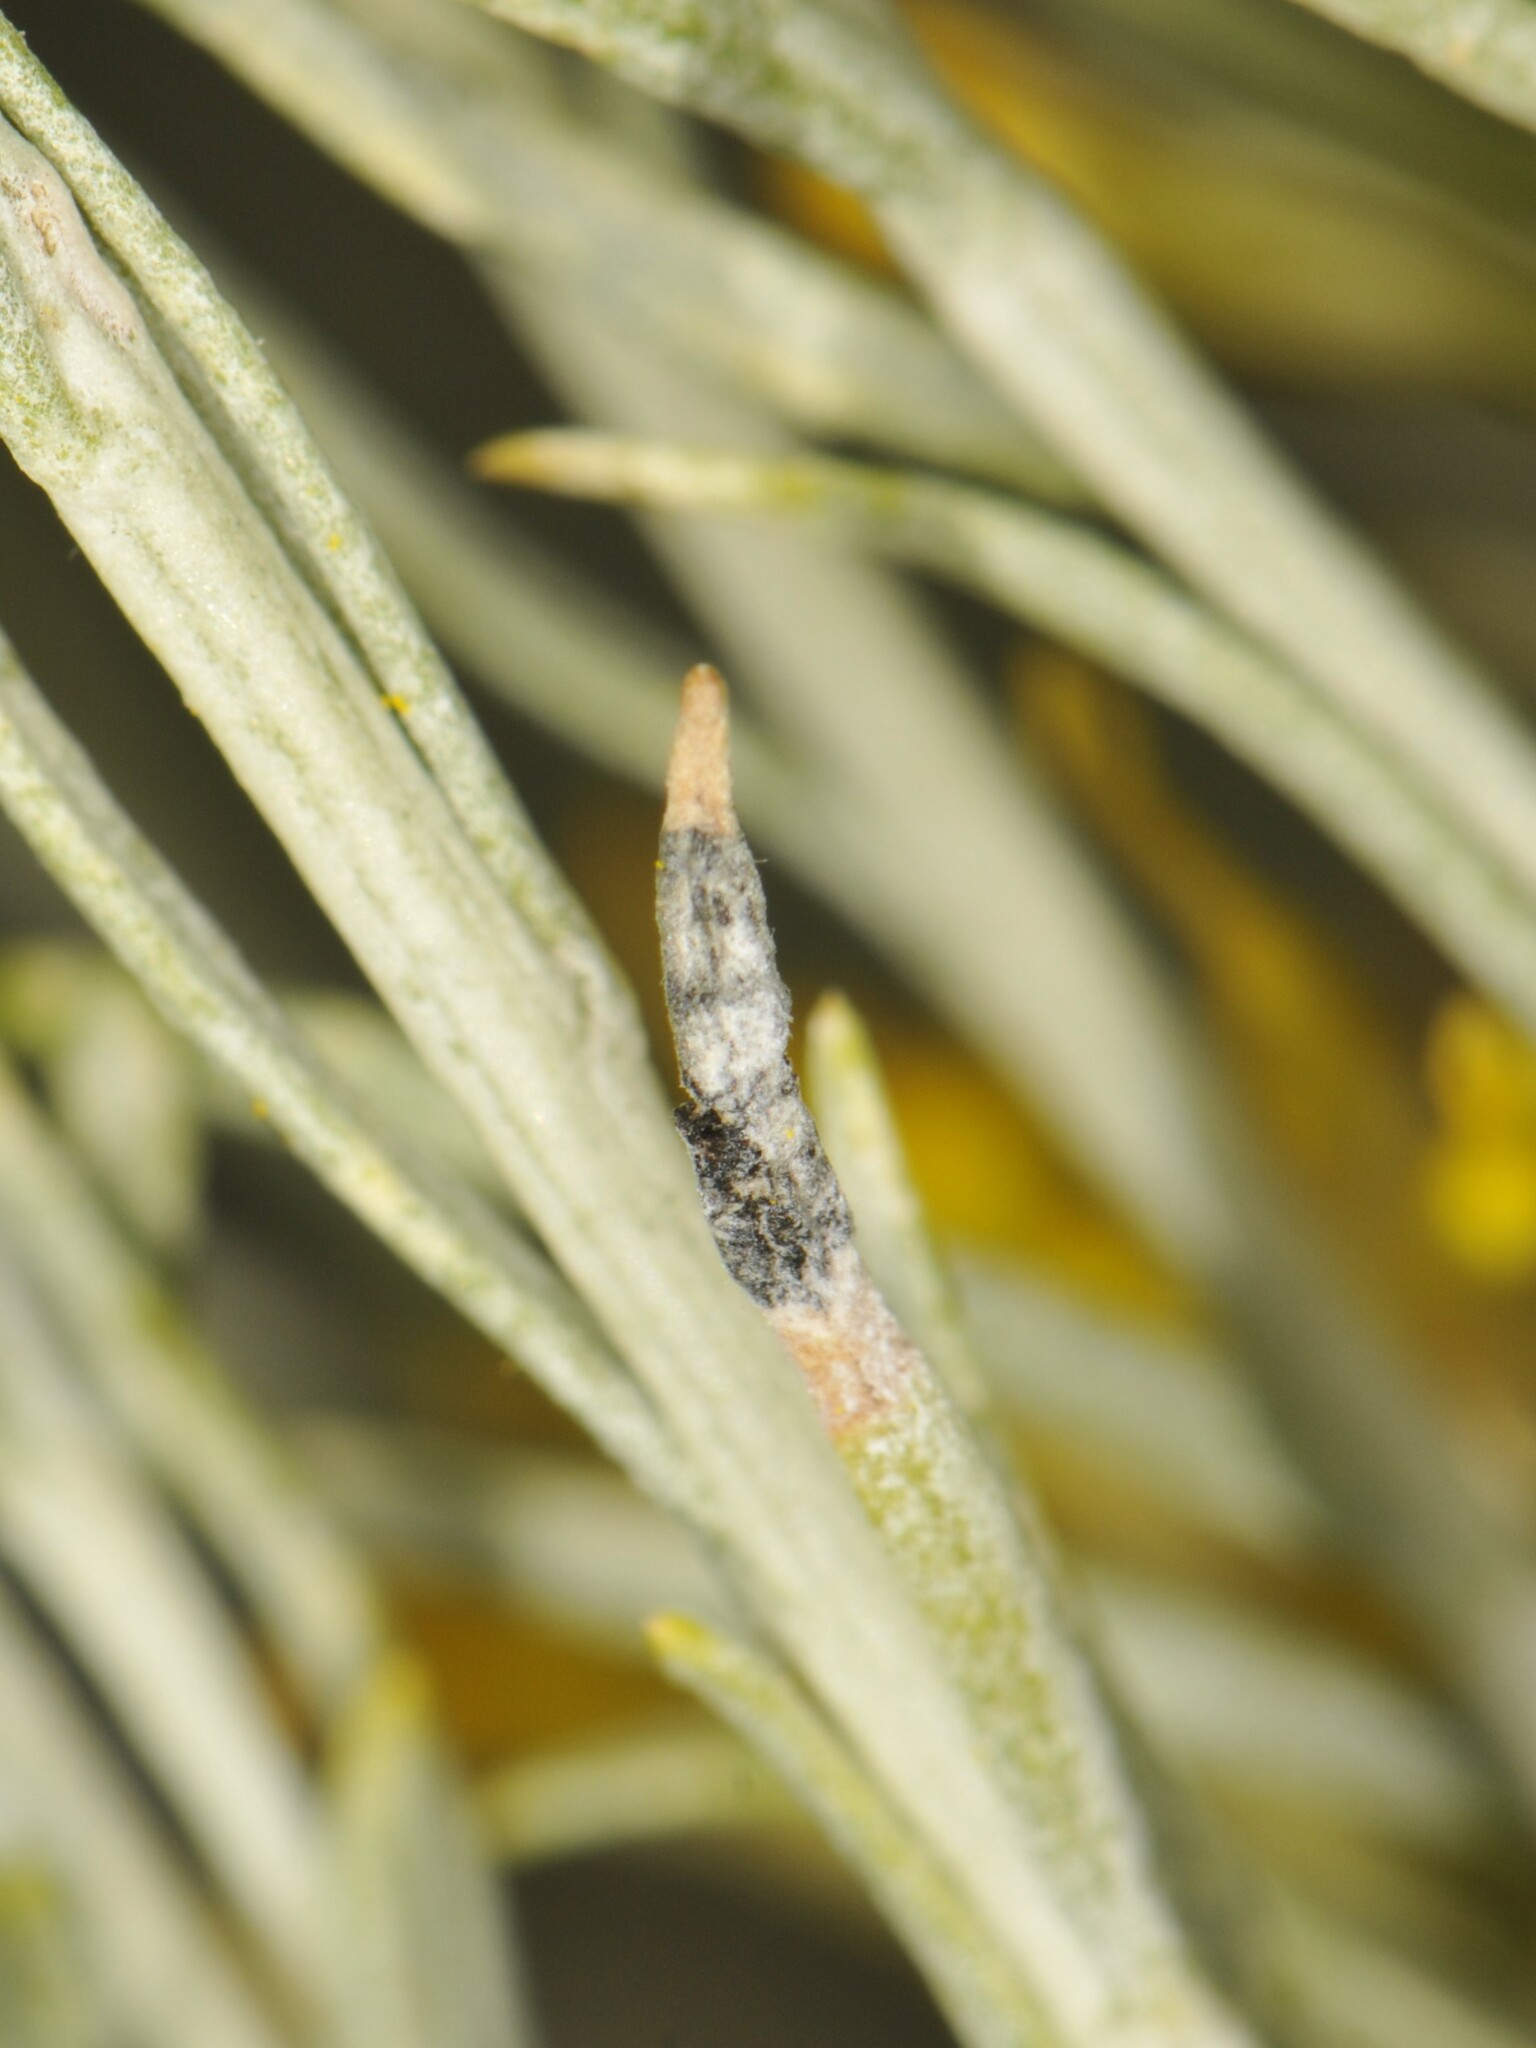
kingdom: Animalia
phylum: Arthropoda
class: Insecta
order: Diptera
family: Cecidomyiidae
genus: Asteromyia
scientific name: Asteromyia chrysothamni
